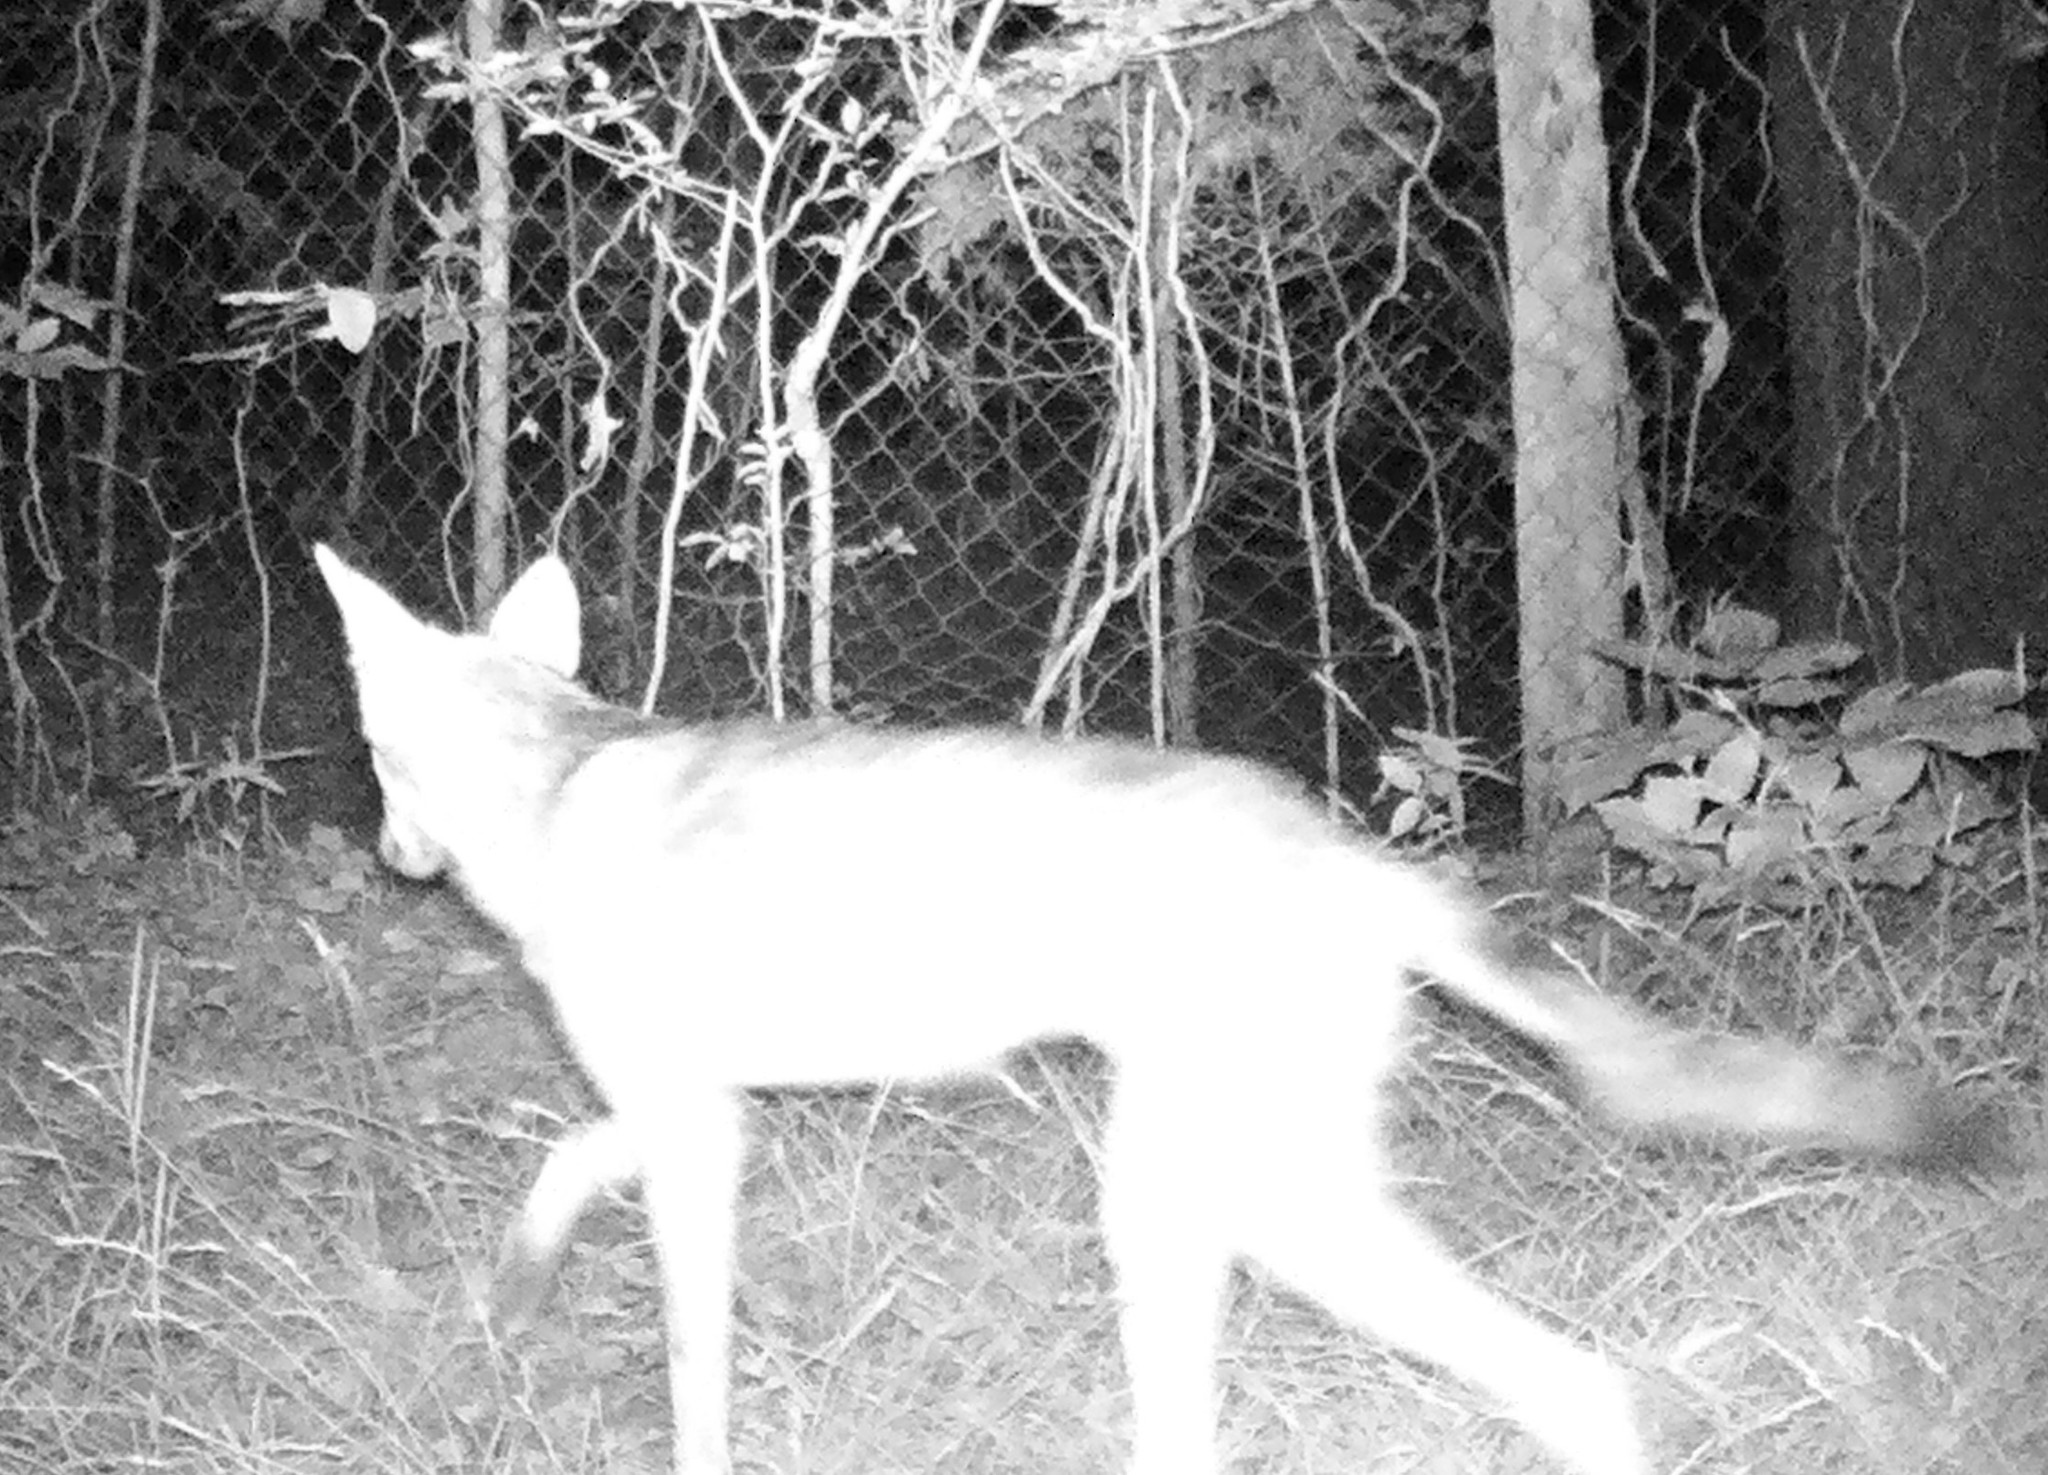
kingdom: Animalia
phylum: Chordata
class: Mammalia
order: Carnivora
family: Canidae
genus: Canis
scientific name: Canis latrans
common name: Coyote
